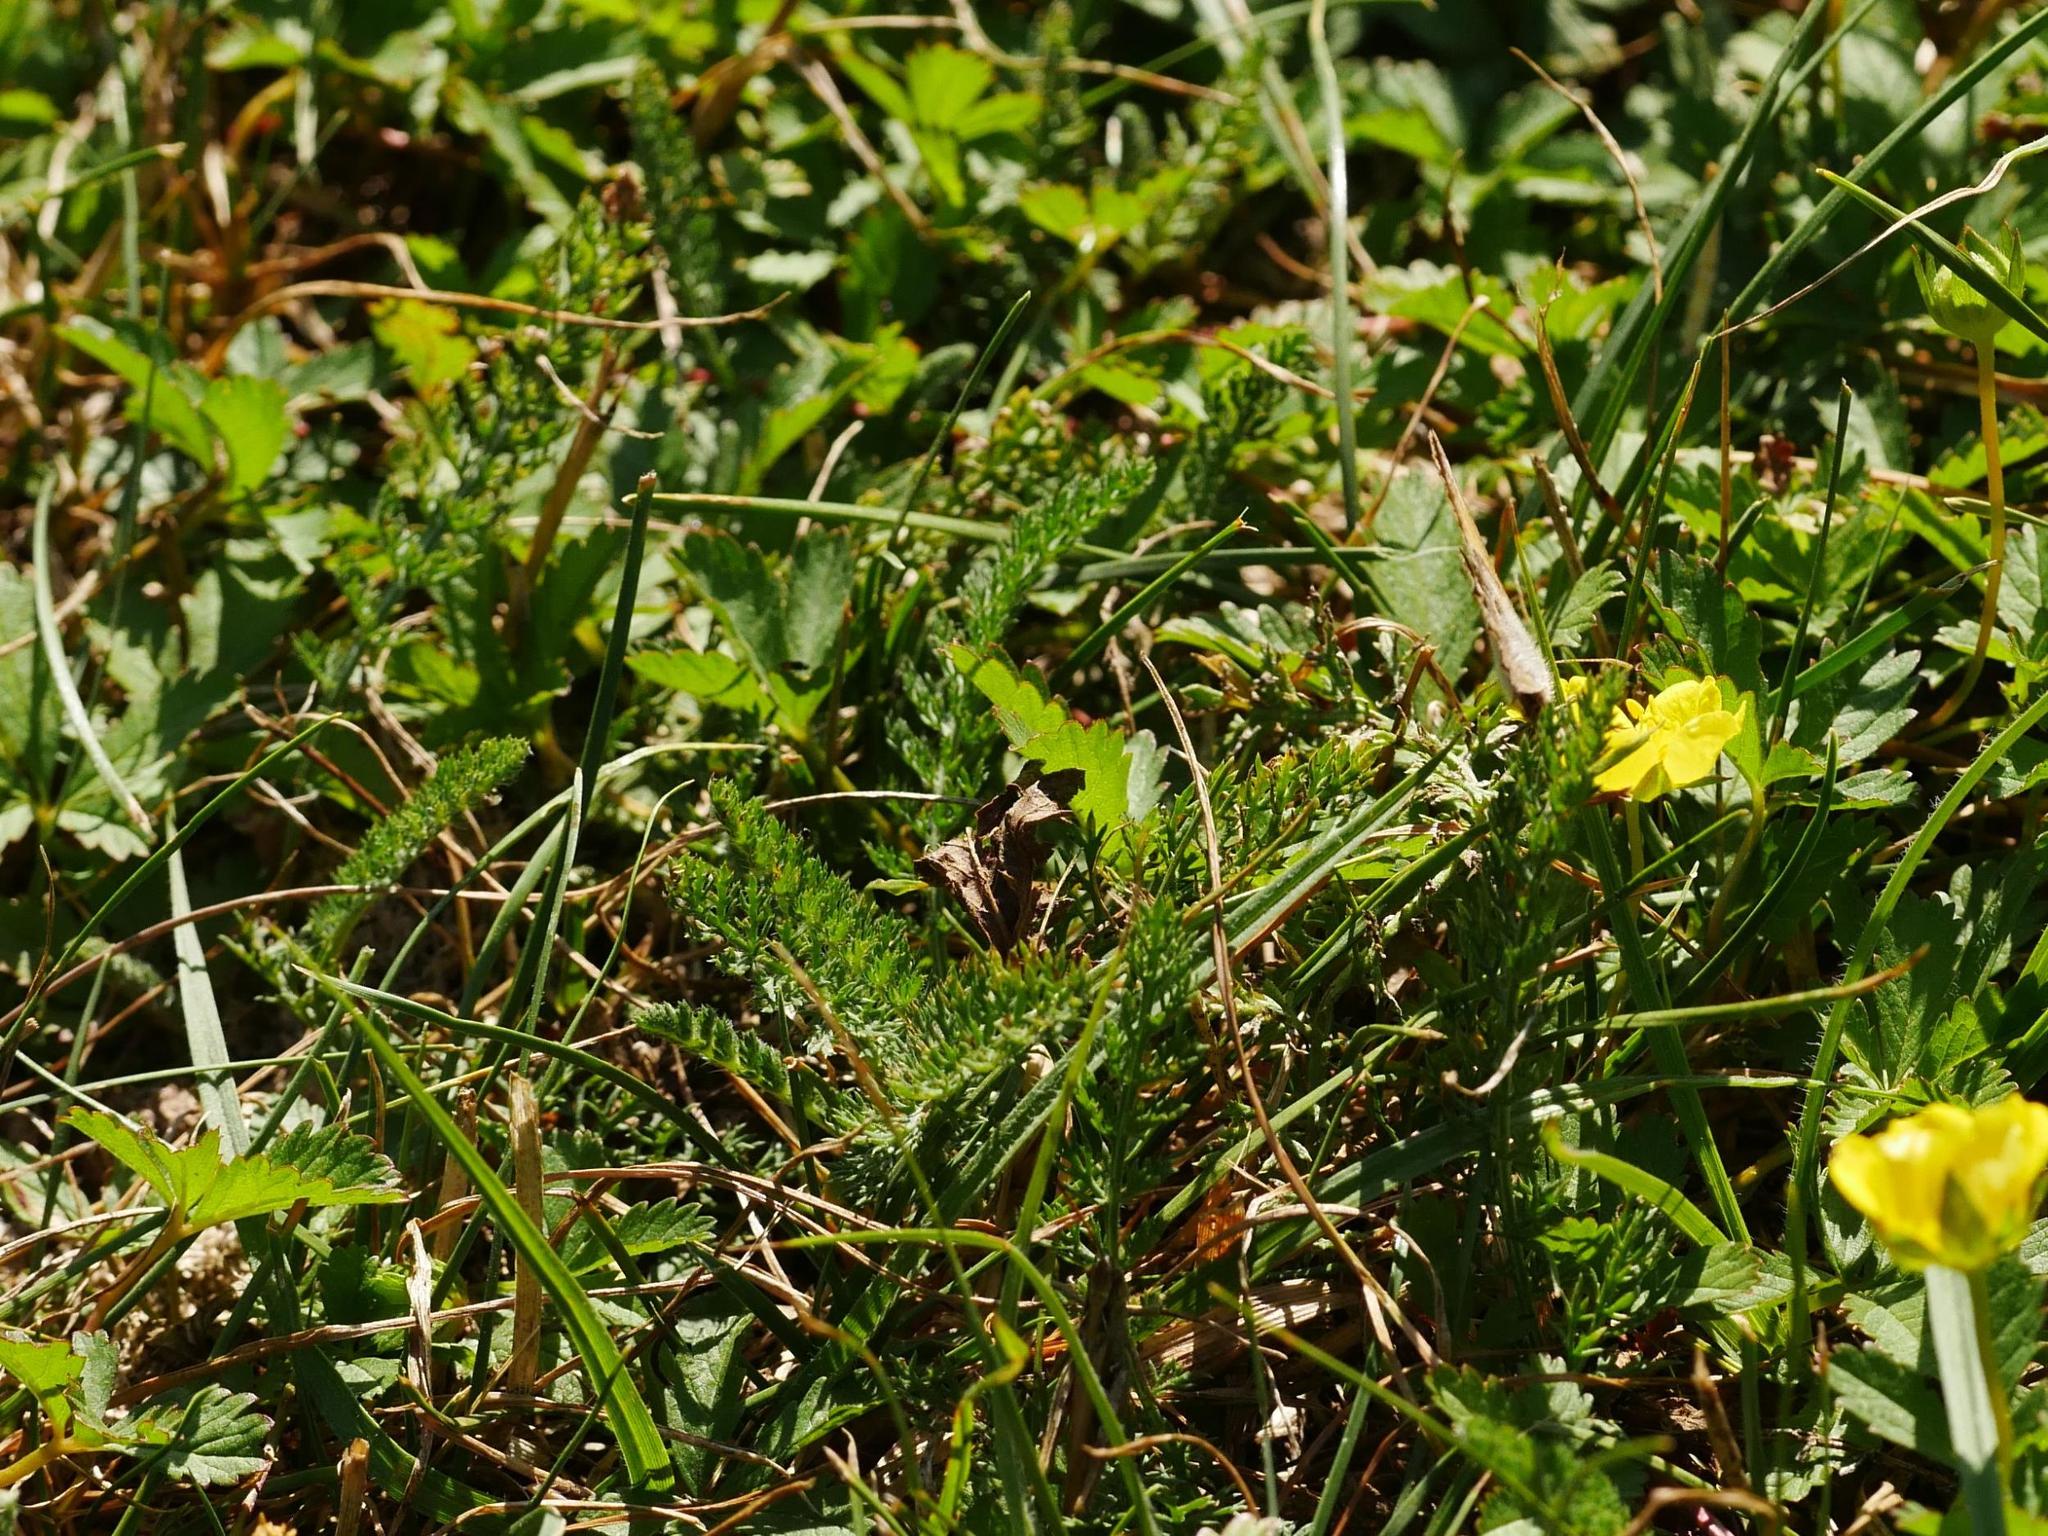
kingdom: Plantae
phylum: Tracheophyta
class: Magnoliopsida
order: Asterales
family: Asteraceae
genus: Achillea
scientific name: Achillea millefolium
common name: Yarrow
